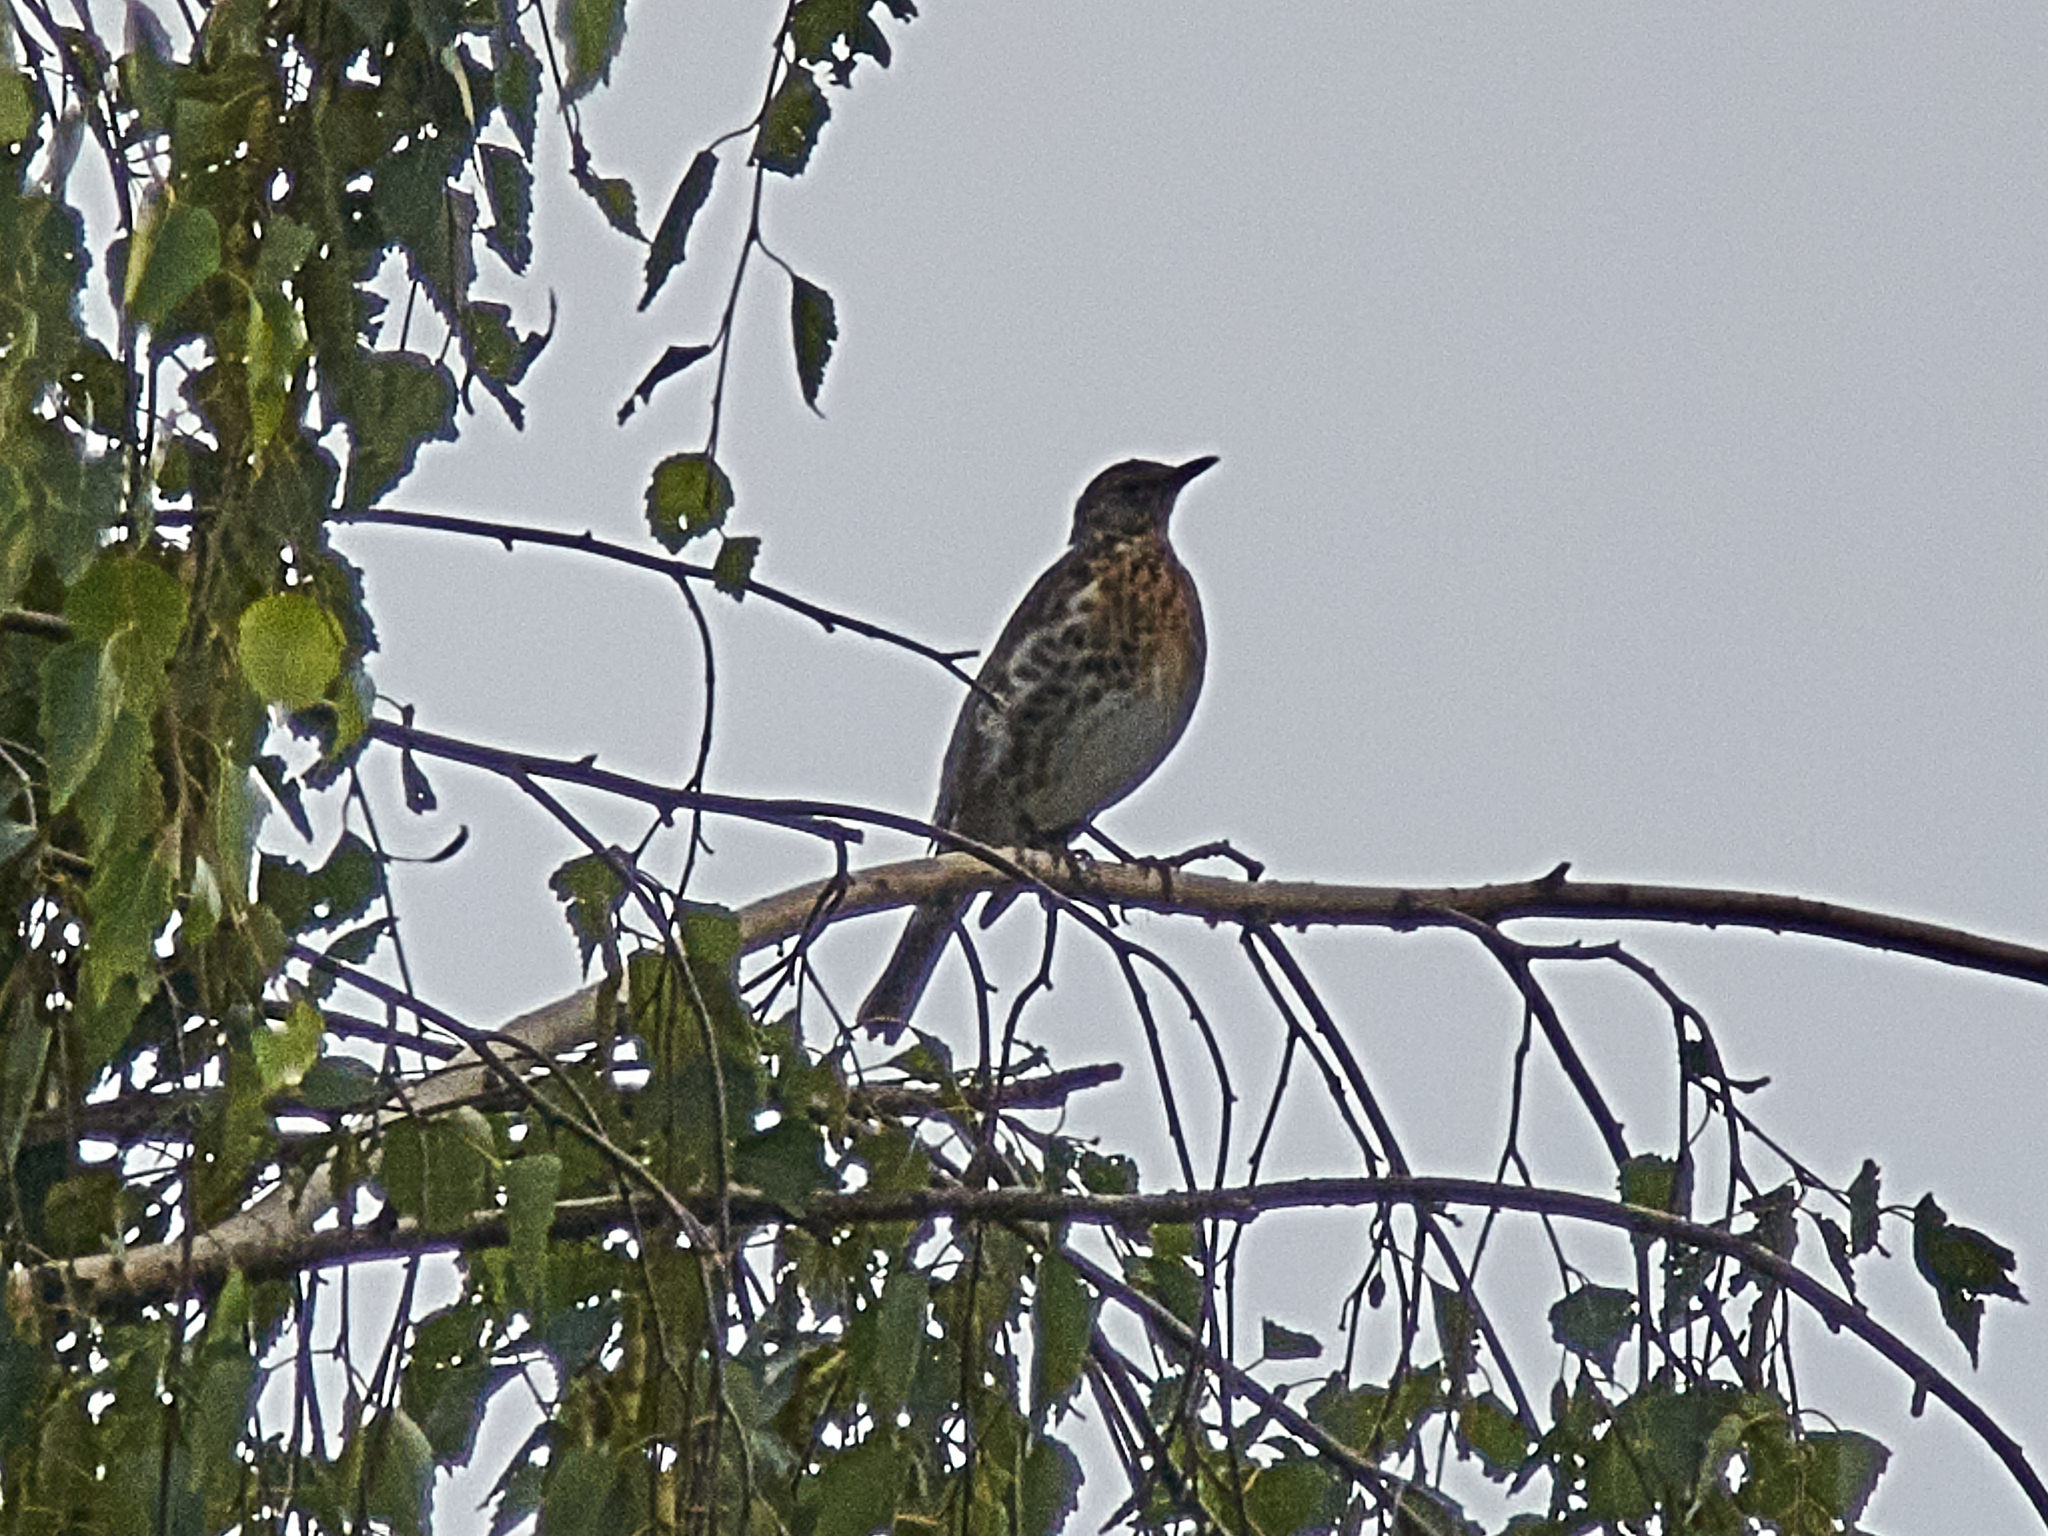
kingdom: Animalia
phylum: Chordata
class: Aves
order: Passeriformes
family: Turdidae
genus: Turdus
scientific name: Turdus pilaris
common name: Fieldfare
